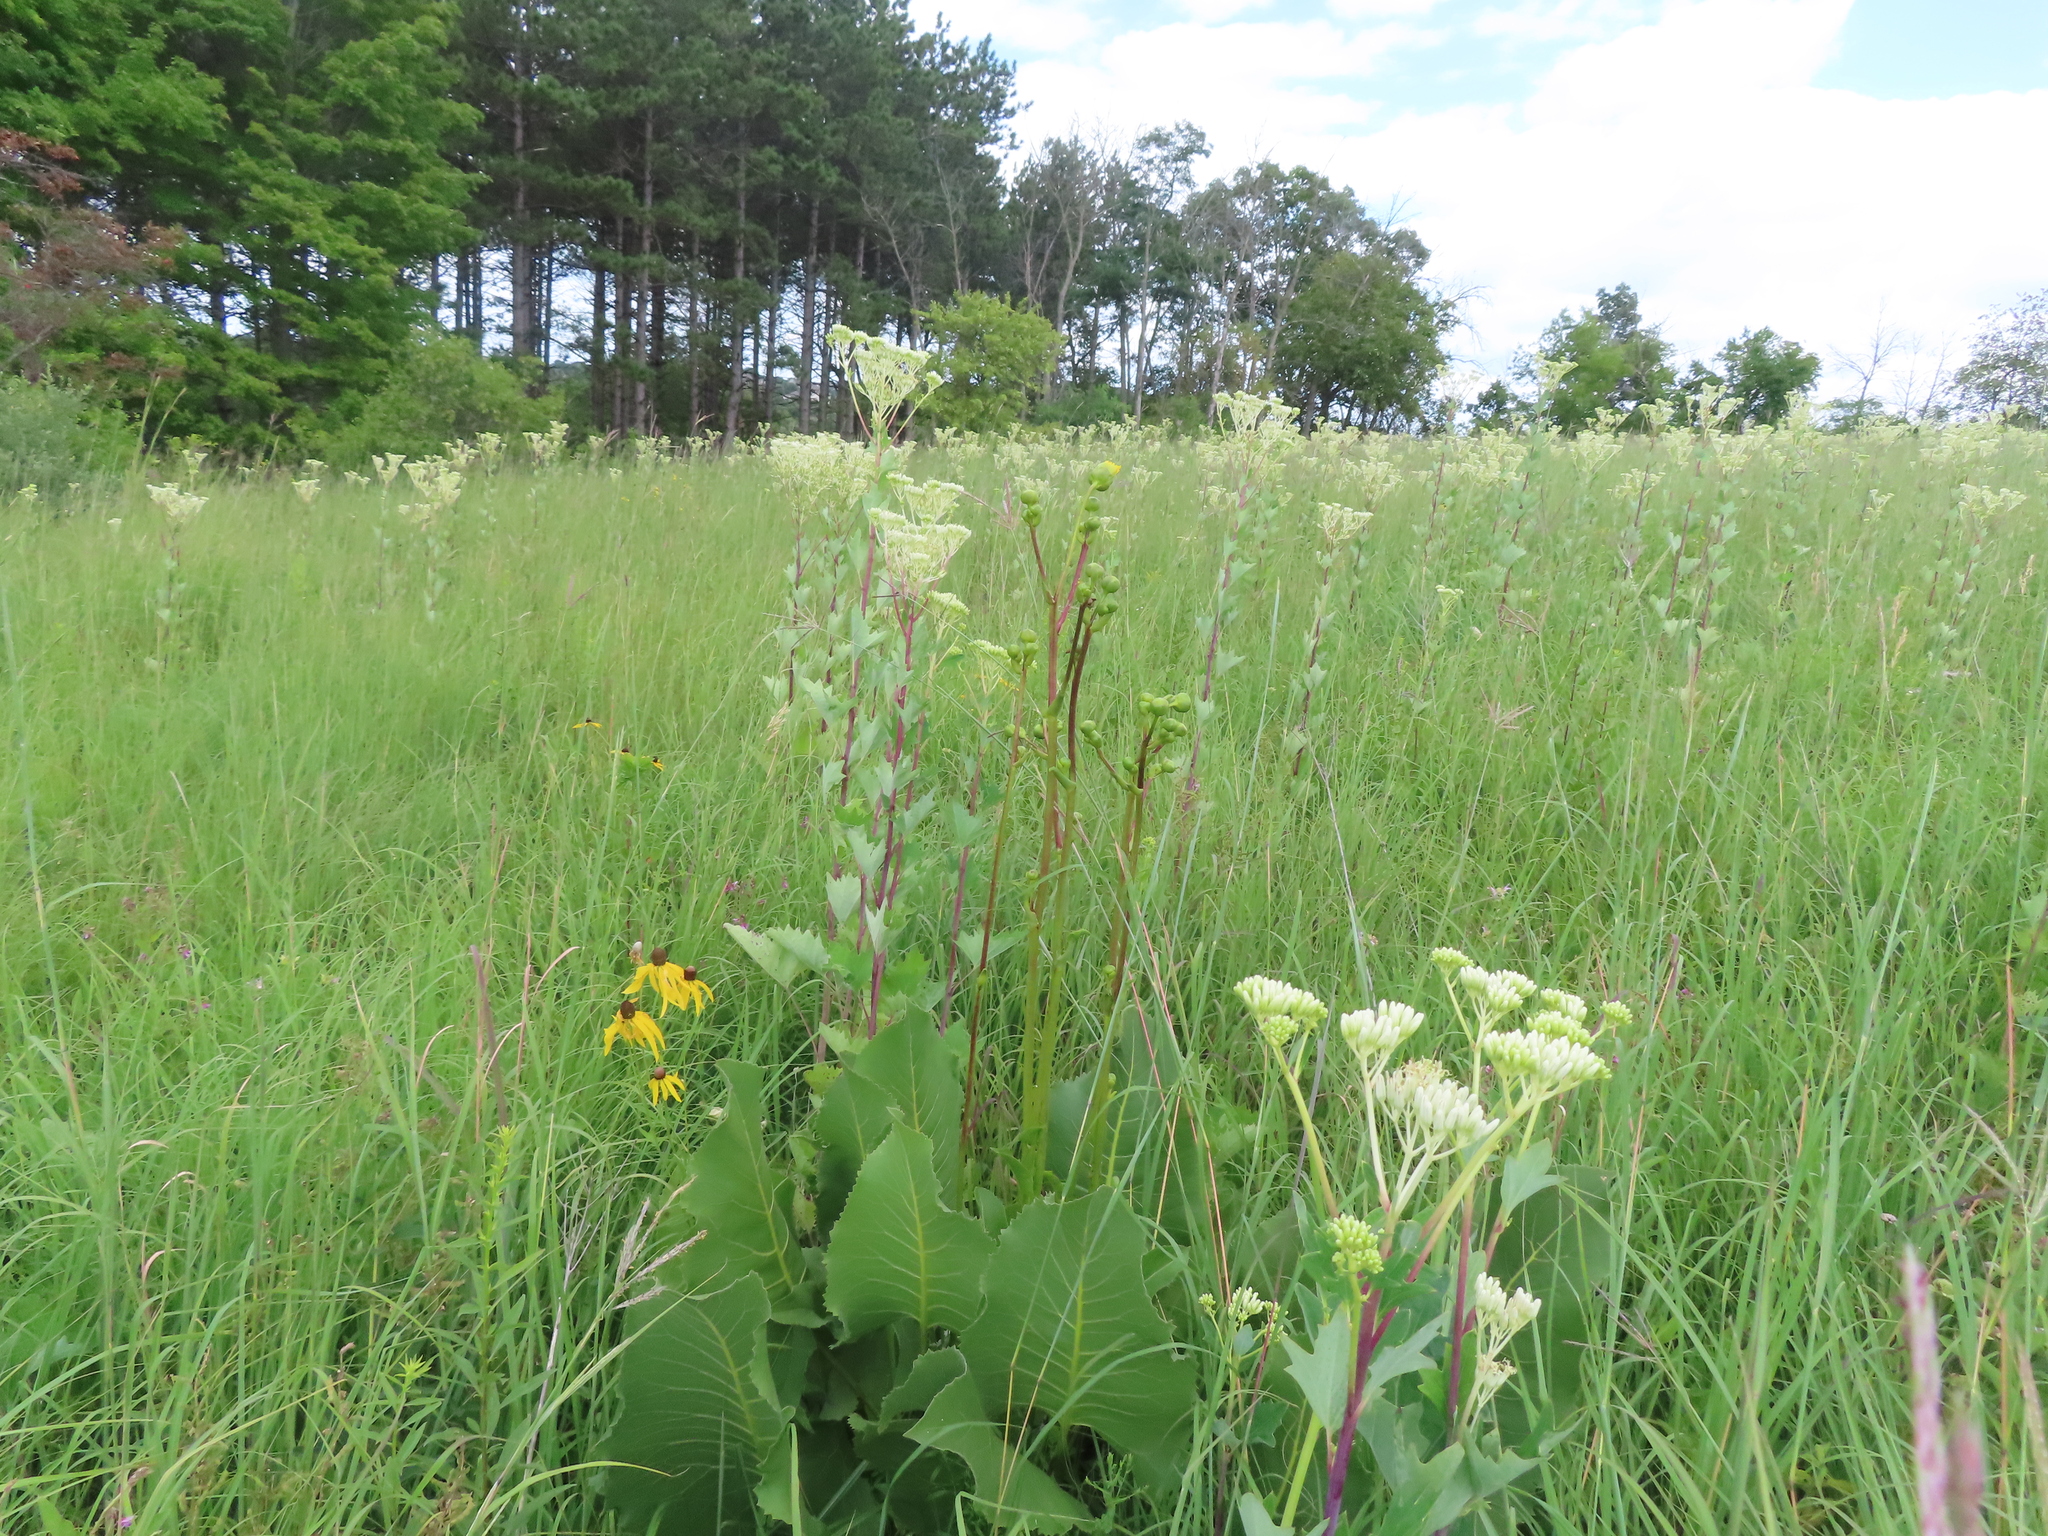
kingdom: Plantae
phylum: Tracheophyta
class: Magnoliopsida
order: Asterales
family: Asteraceae
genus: Arnoglossum
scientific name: Arnoglossum atriplicifolium
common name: Pale indian-plantain
